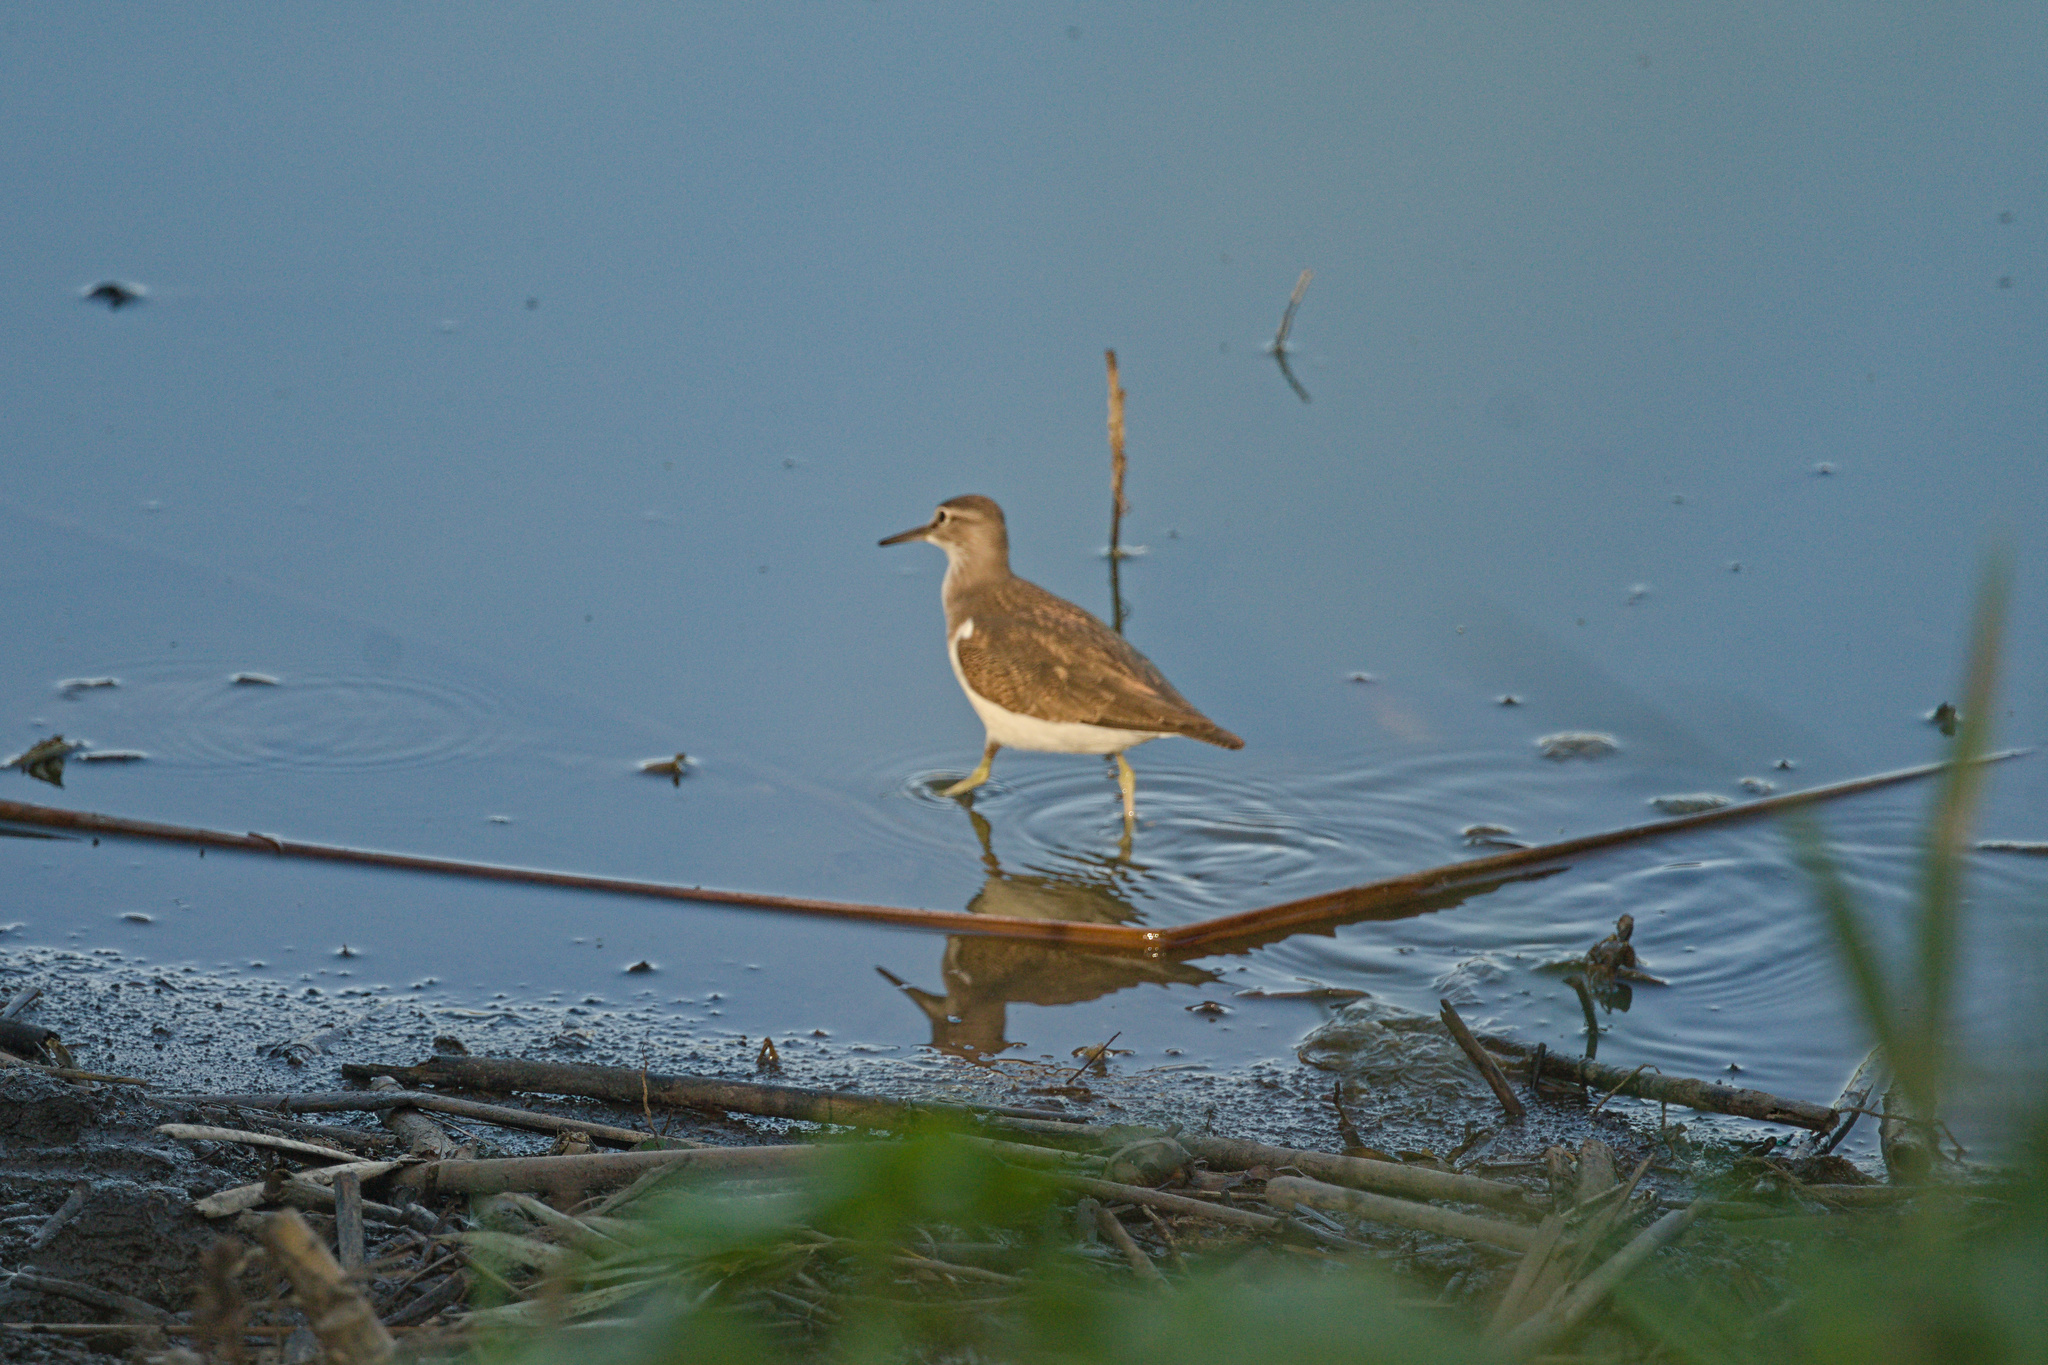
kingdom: Animalia
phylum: Chordata
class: Aves
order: Charadriiformes
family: Scolopacidae
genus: Actitis
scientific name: Actitis hypoleucos
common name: Common sandpiper
